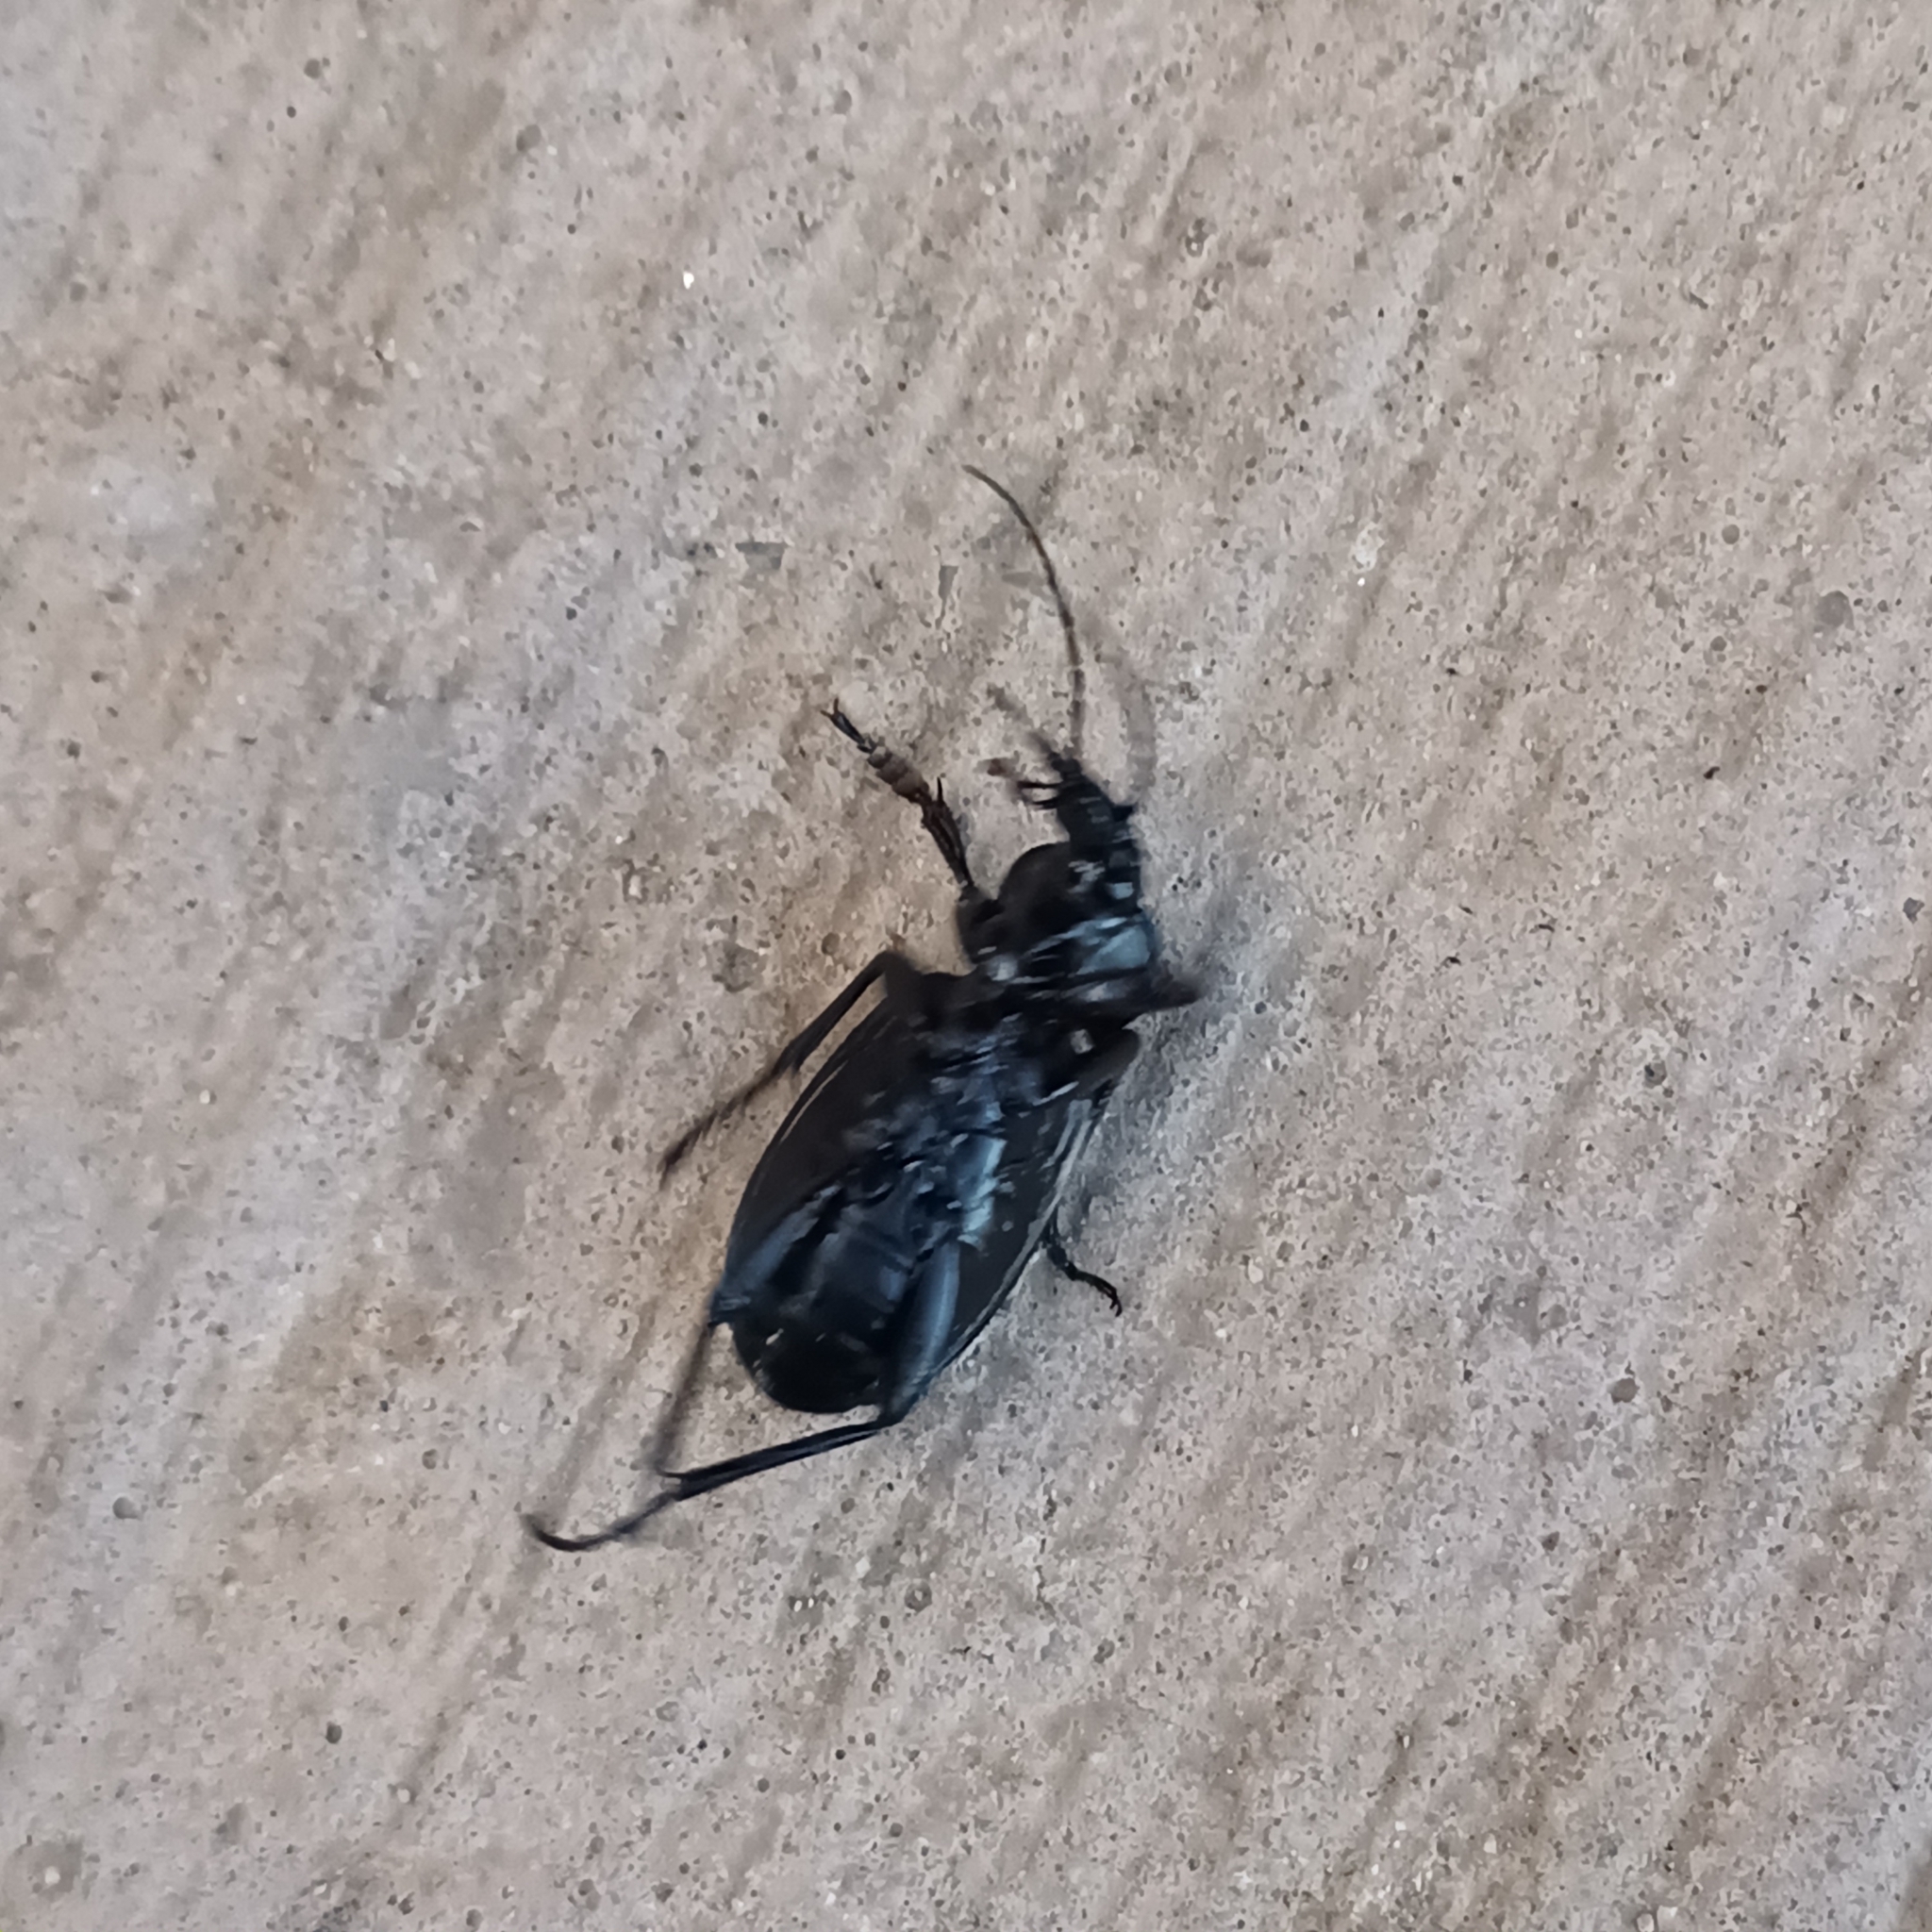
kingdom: Animalia
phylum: Arthropoda
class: Insecta
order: Coleoptera
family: Carabidae
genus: Carabus
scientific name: Carabus morbillosus
